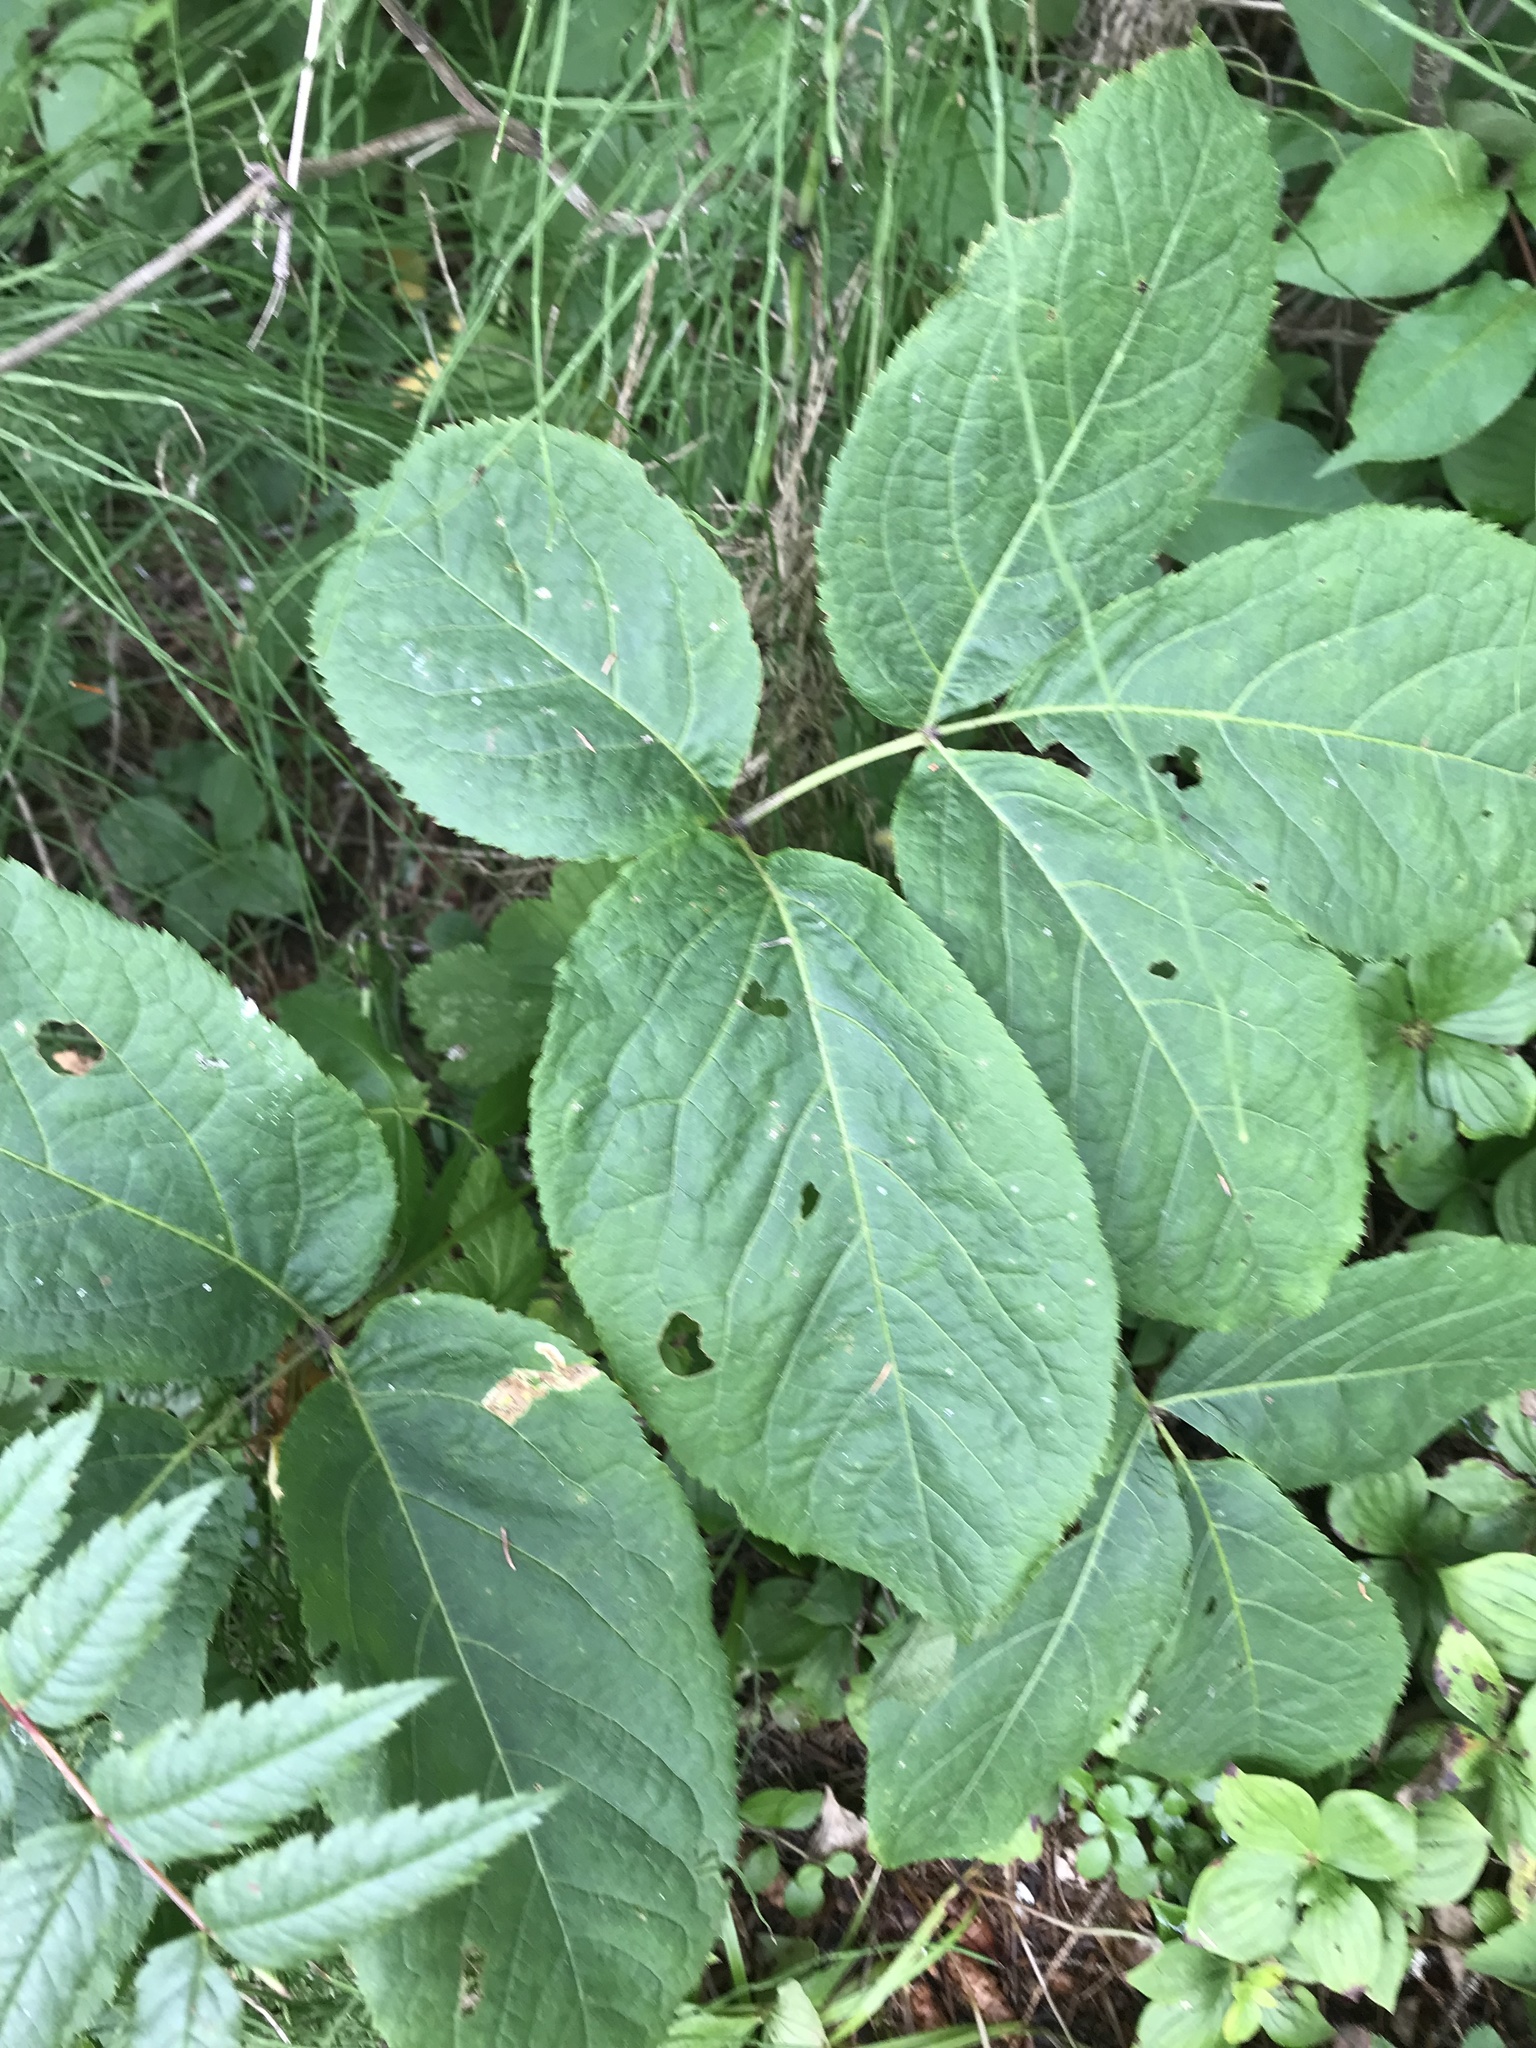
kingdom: Plantae
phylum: Tracheophyta
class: Magnoliopsida
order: Apiales
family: Araliaceae
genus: Aralia
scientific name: Aralia nudicaulis
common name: Wild sarsaparilla
